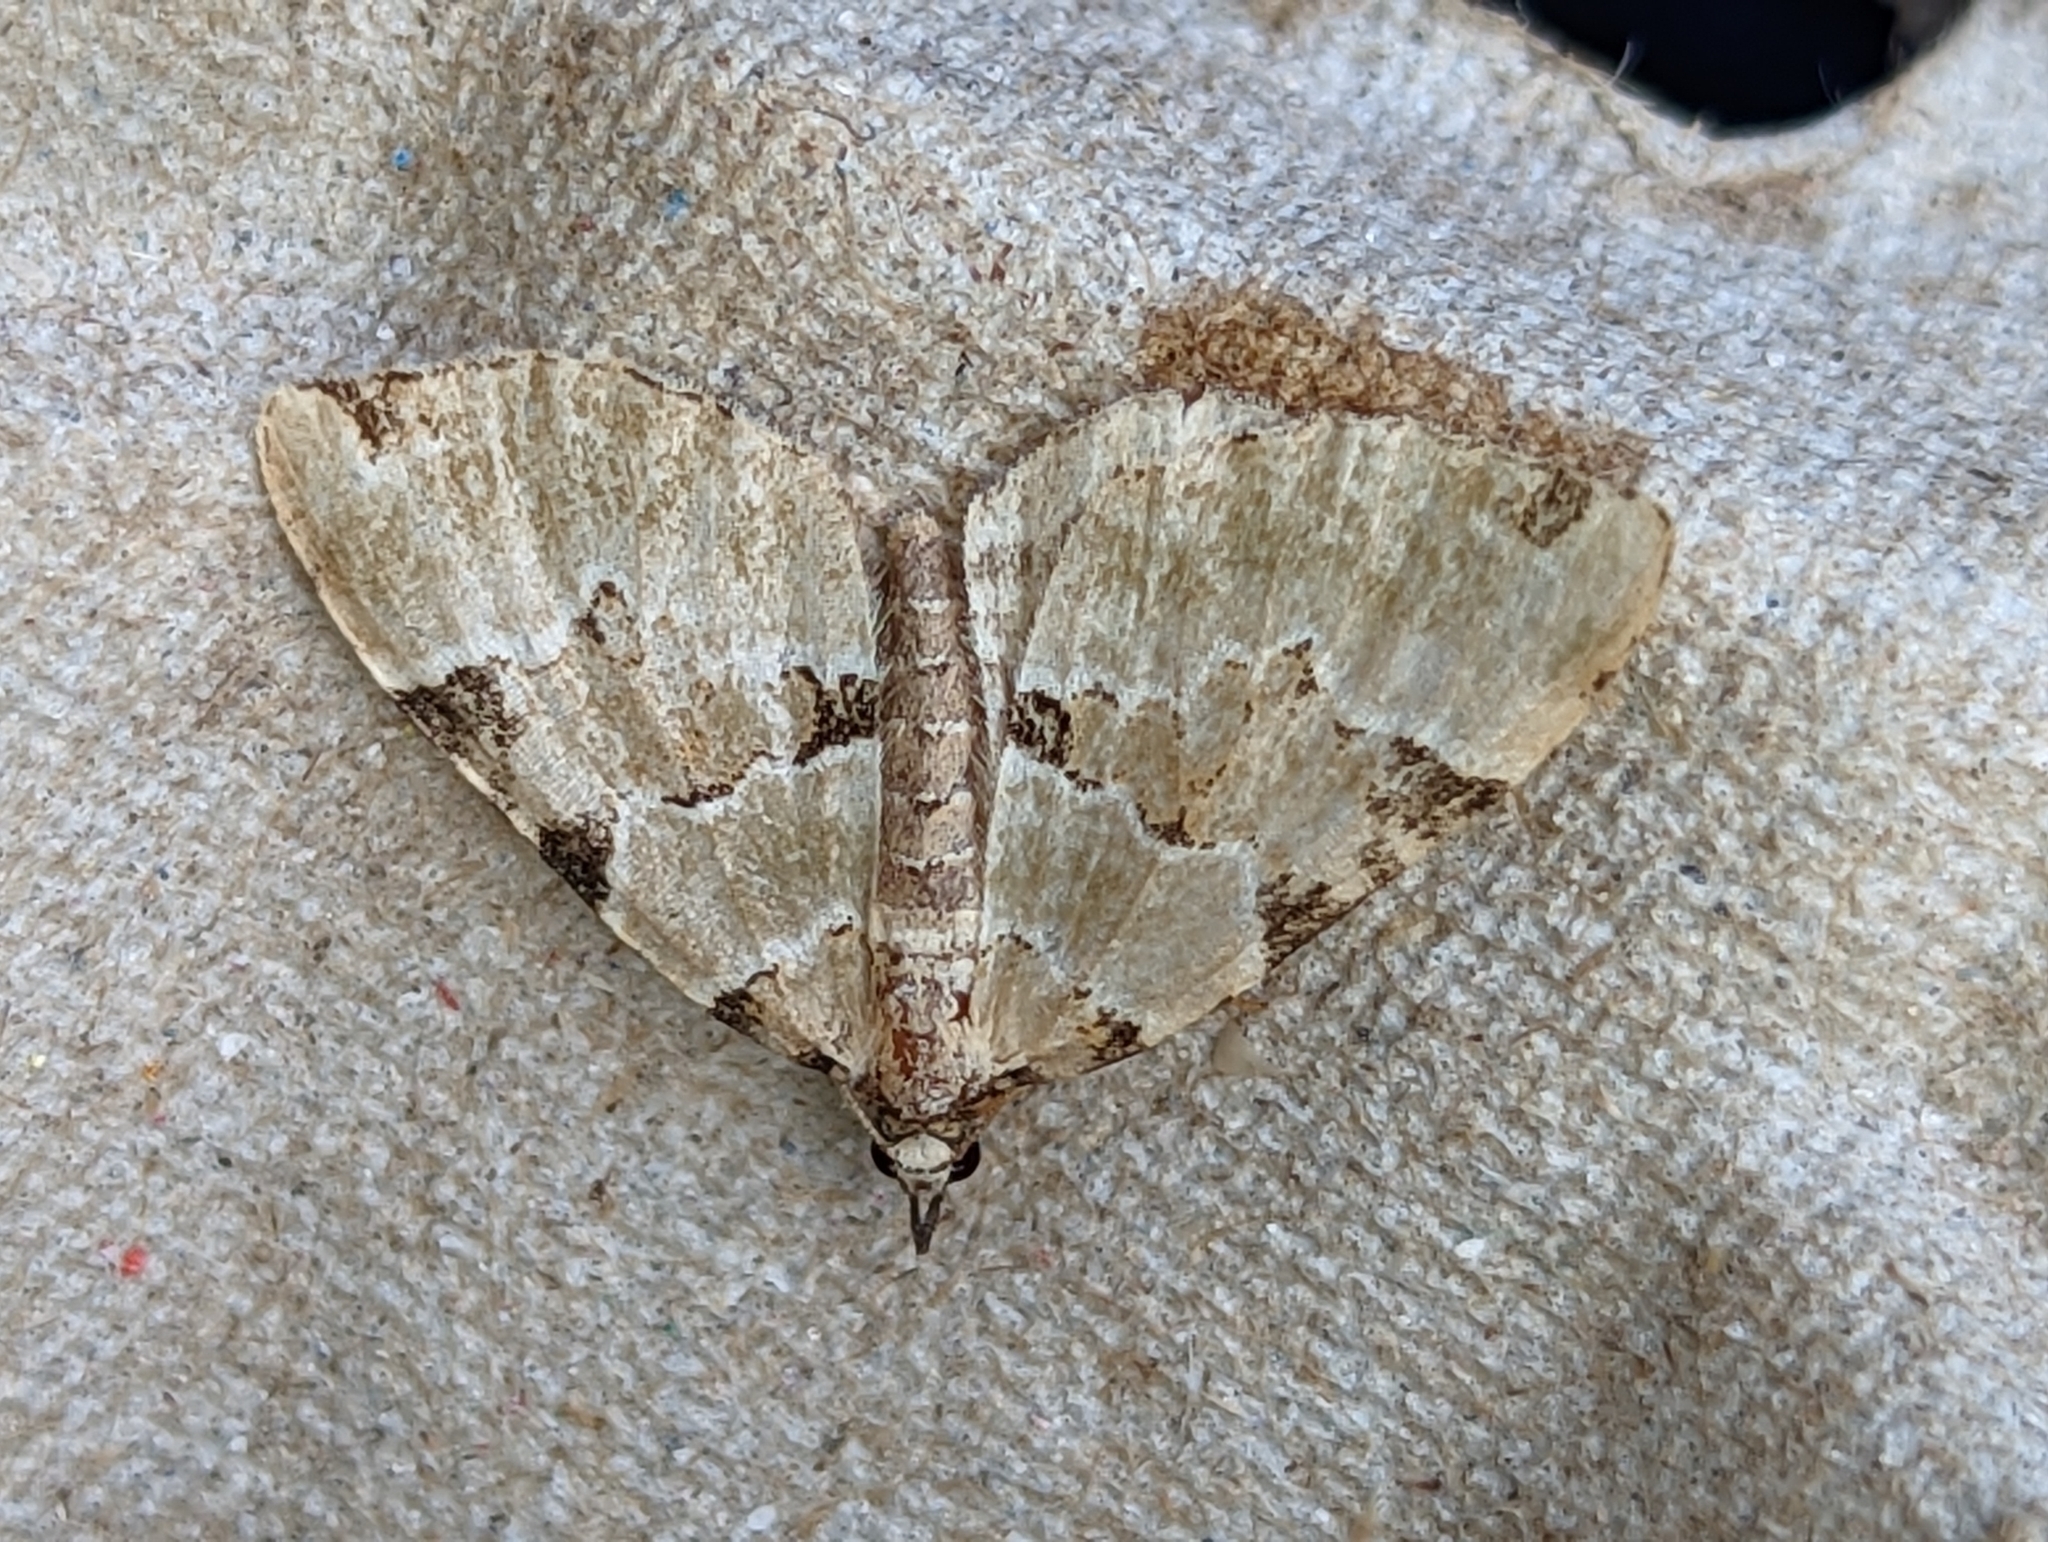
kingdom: Animalia
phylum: Arthropoda
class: Insecta
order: Lepidoptera
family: Geometridae
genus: Colostygia
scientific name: Colostygia pectinataria
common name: Green carpet
